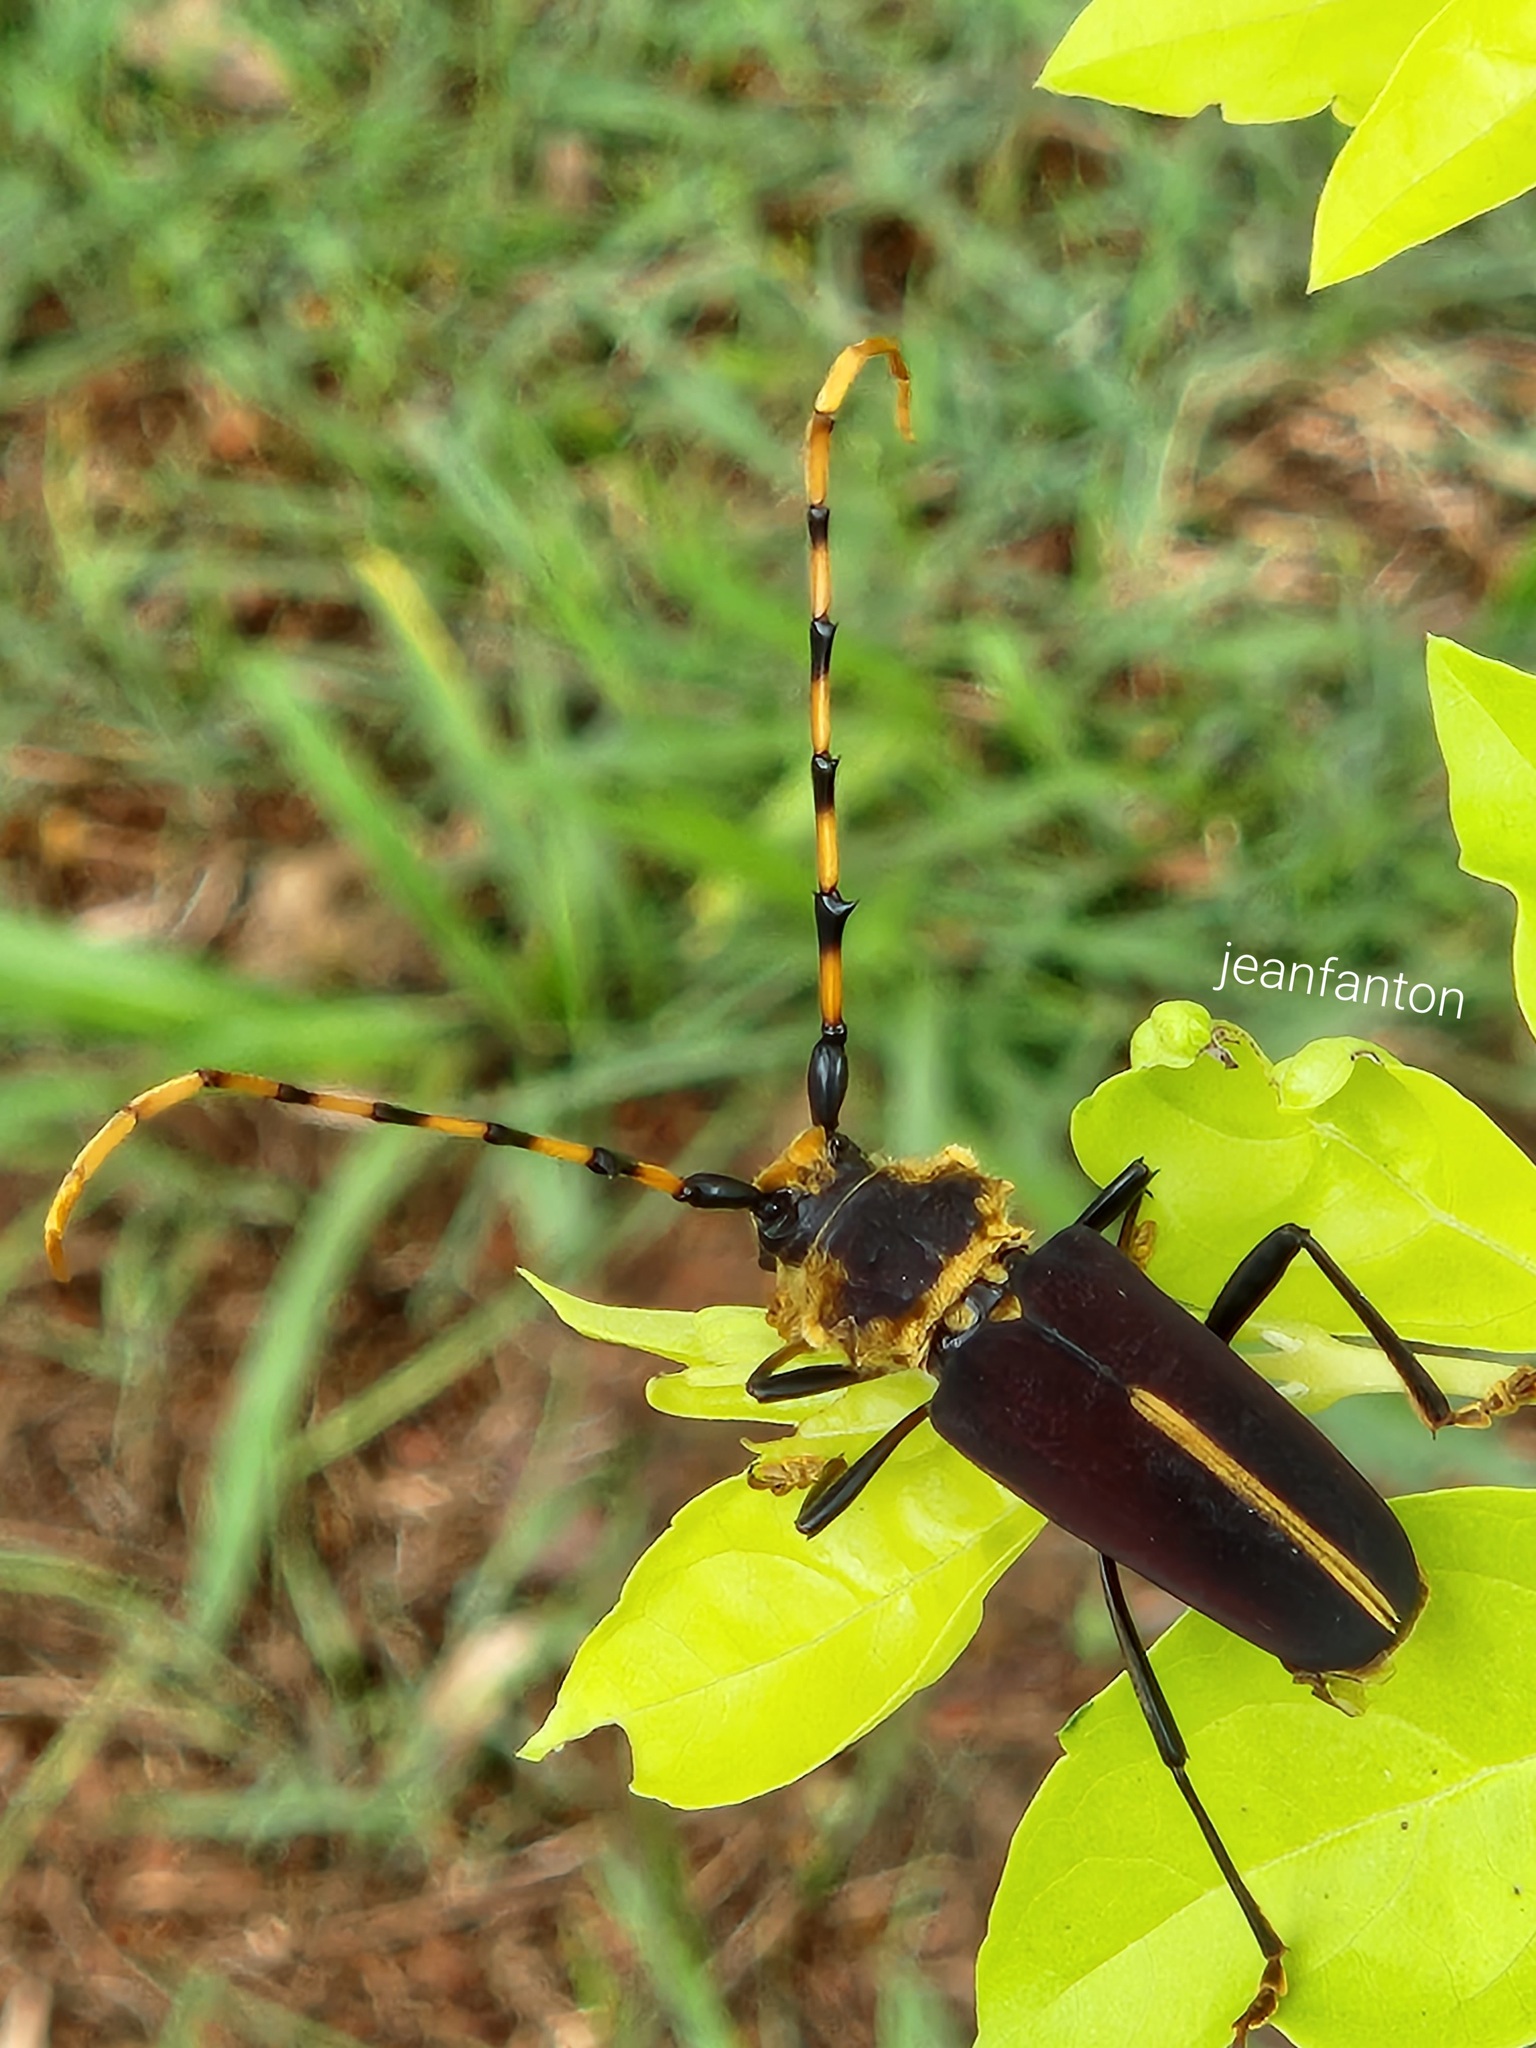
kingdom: Animalia
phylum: Arthropoda
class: Insecta
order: Coleoptera
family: Cerambycidae
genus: Dorcacerus
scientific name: Dorcacerus barbatus
